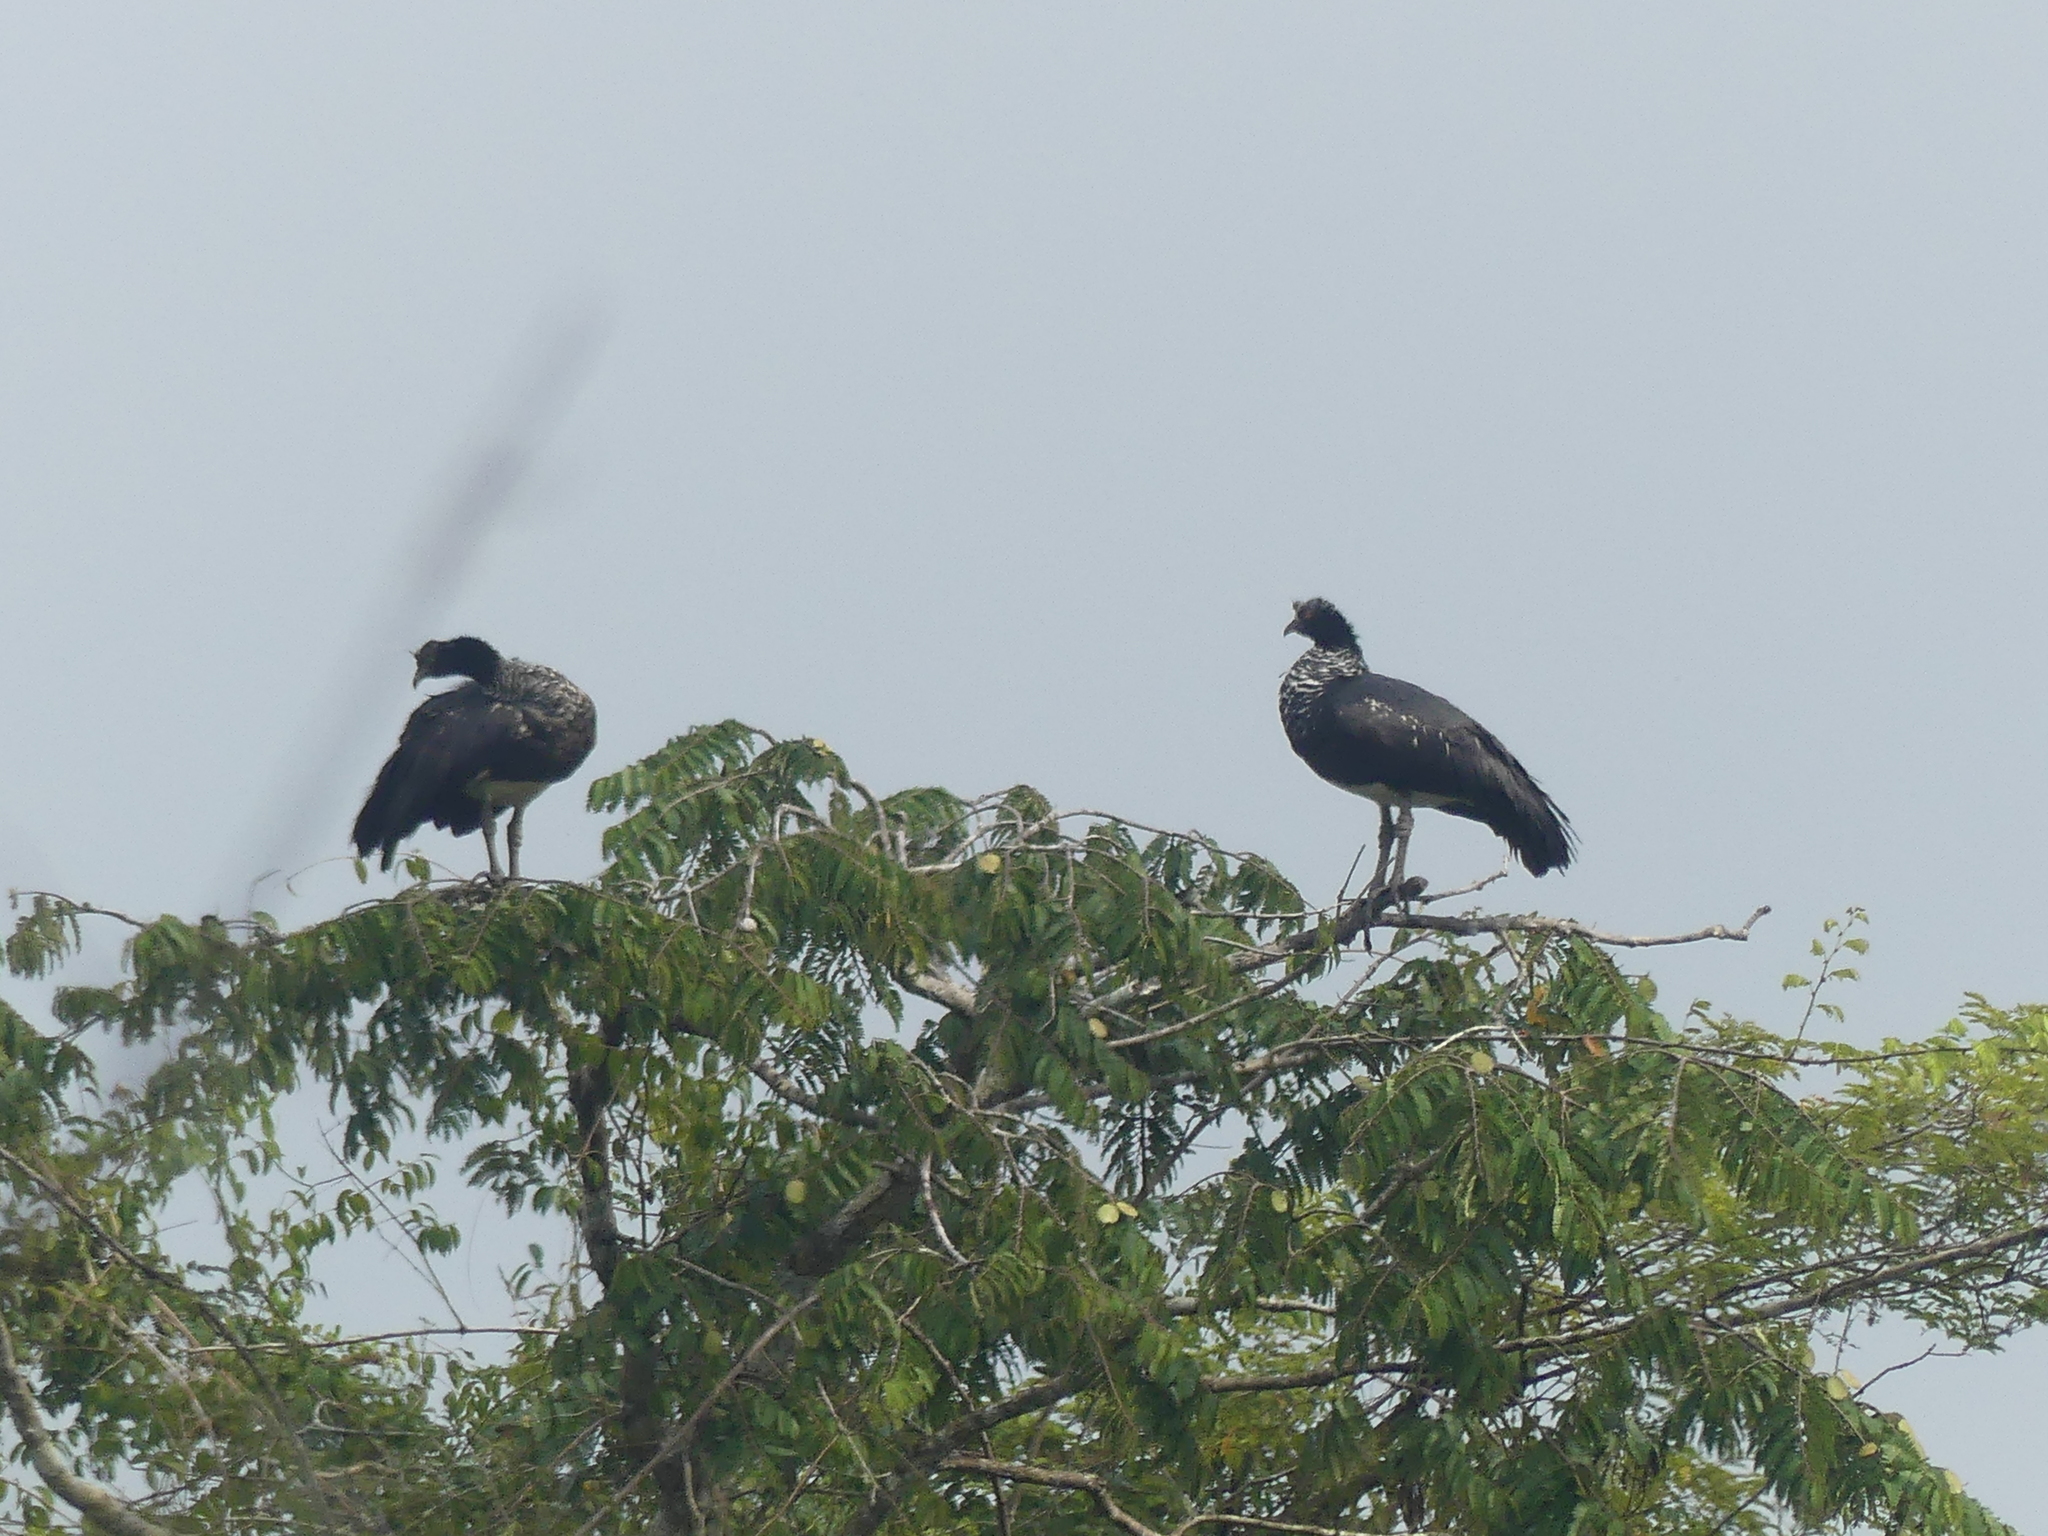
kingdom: Animalia
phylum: Chordata
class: Aves
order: Anseriformes
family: Anhimidae
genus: Anhima
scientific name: Anhima cornuta
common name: Horned screamer
